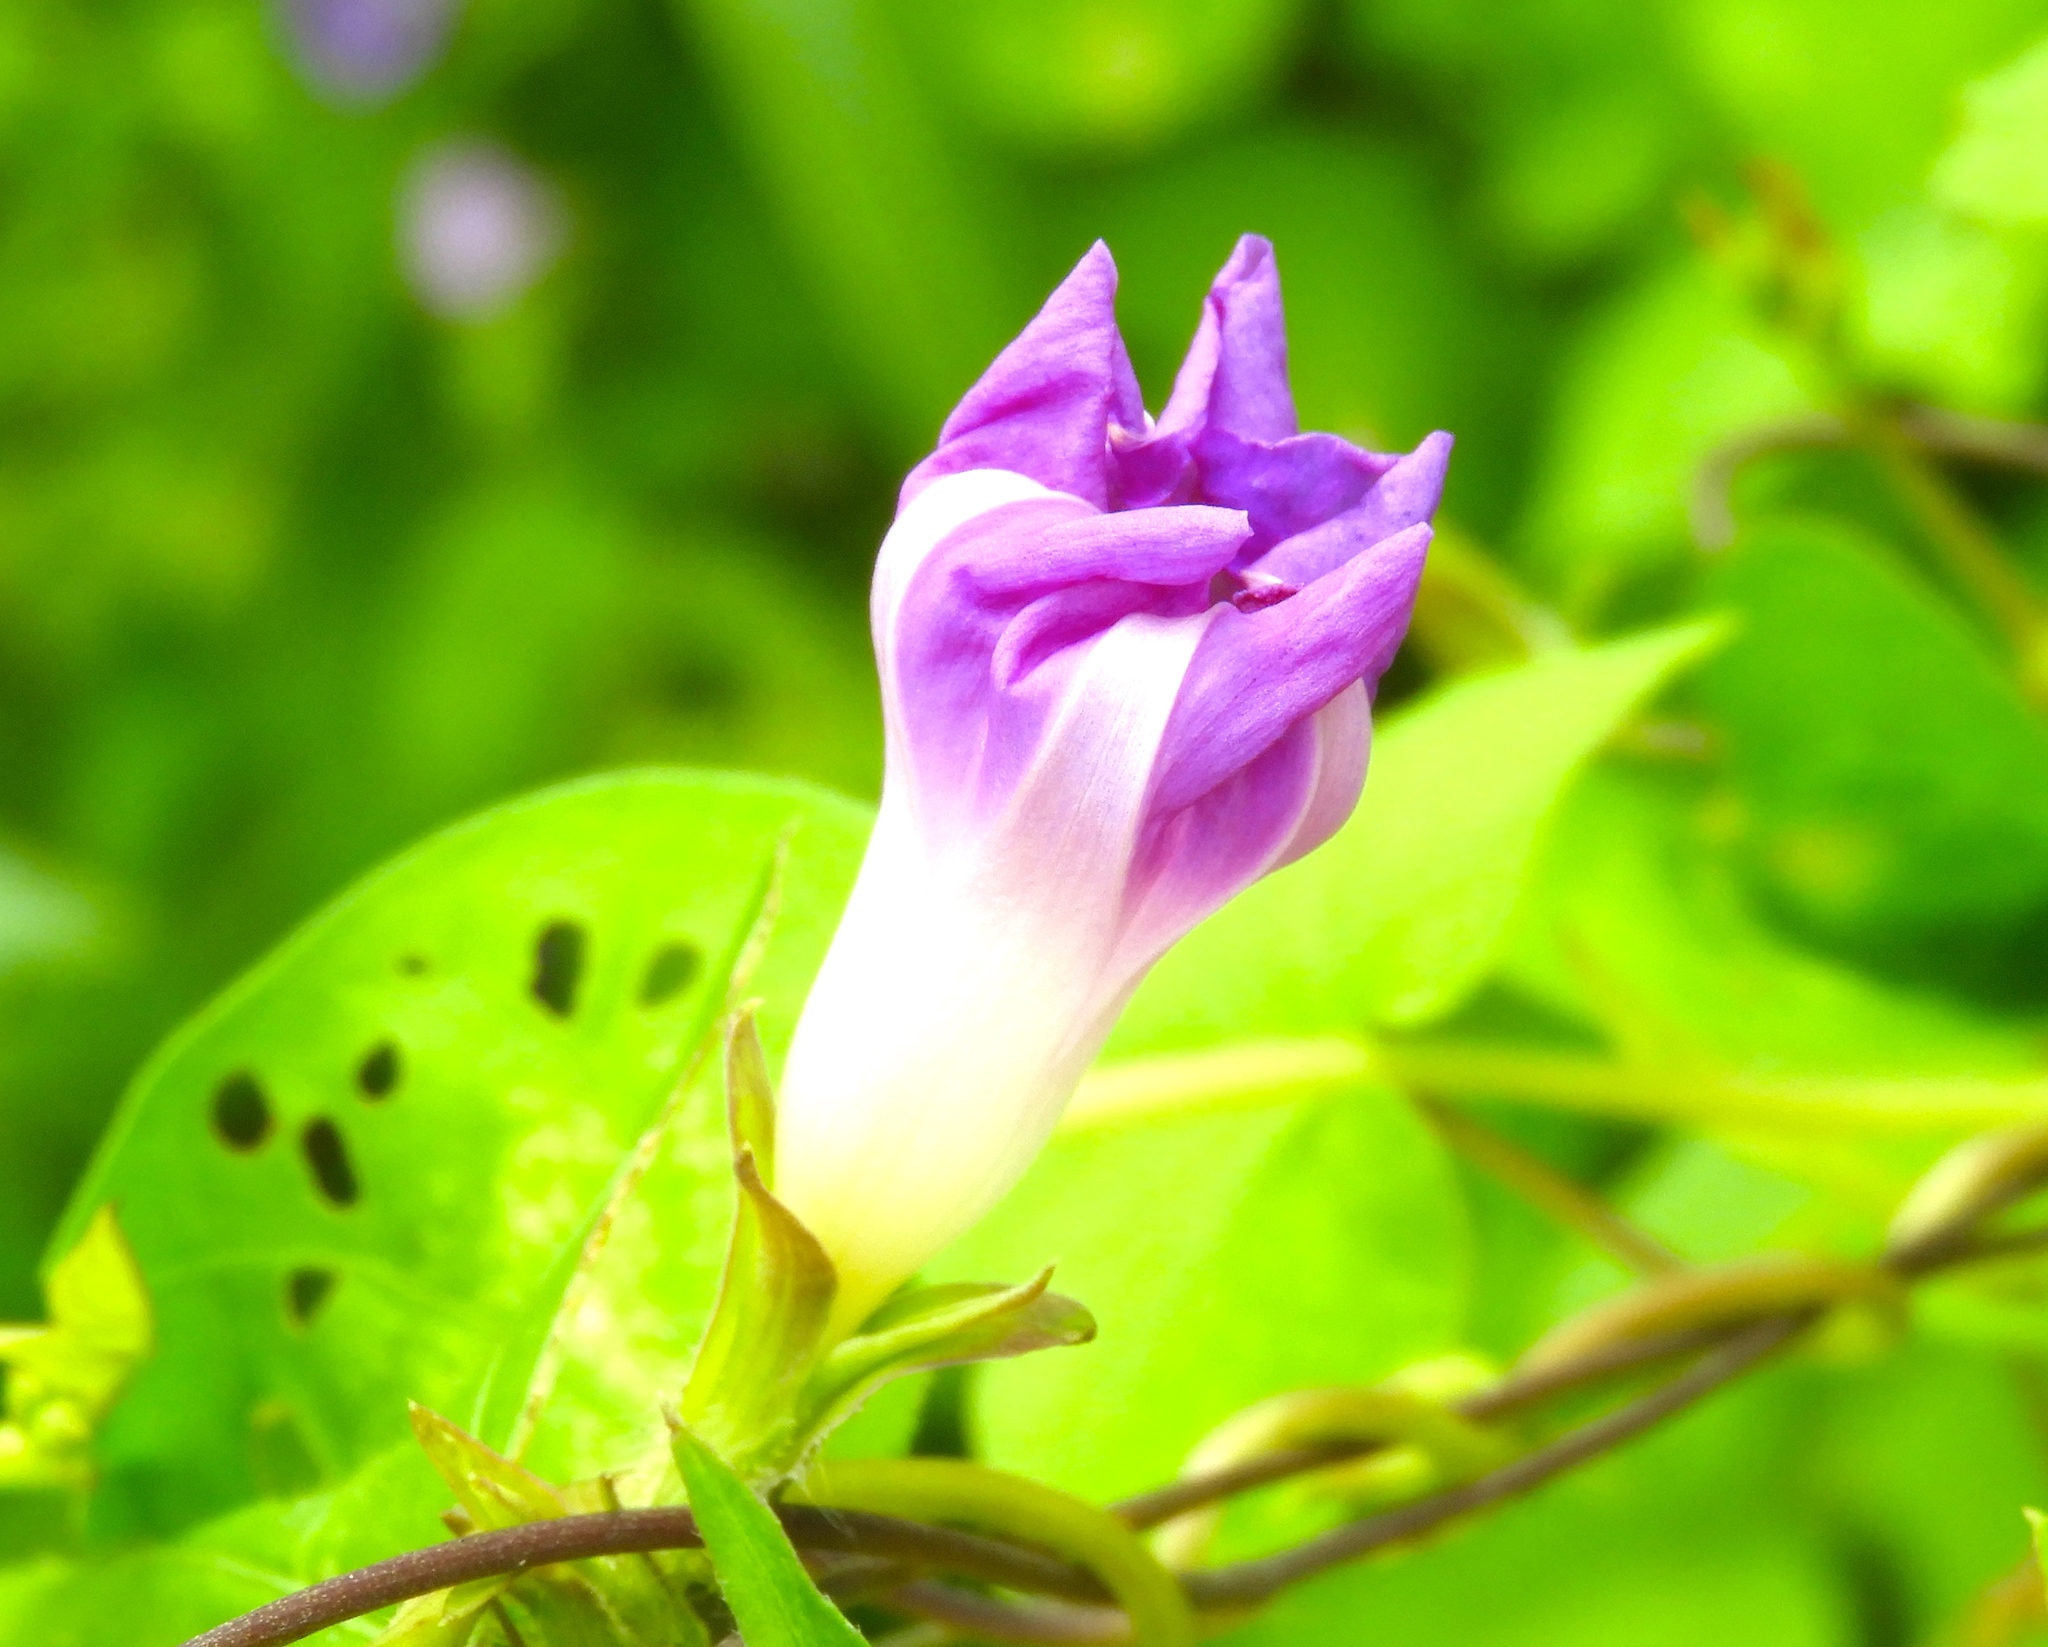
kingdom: Plantae
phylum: Tracheophyta
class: Magnoliopsida
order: Solanales
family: Convolvulaceae
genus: Ipomoea
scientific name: Ipomoea meyeri
